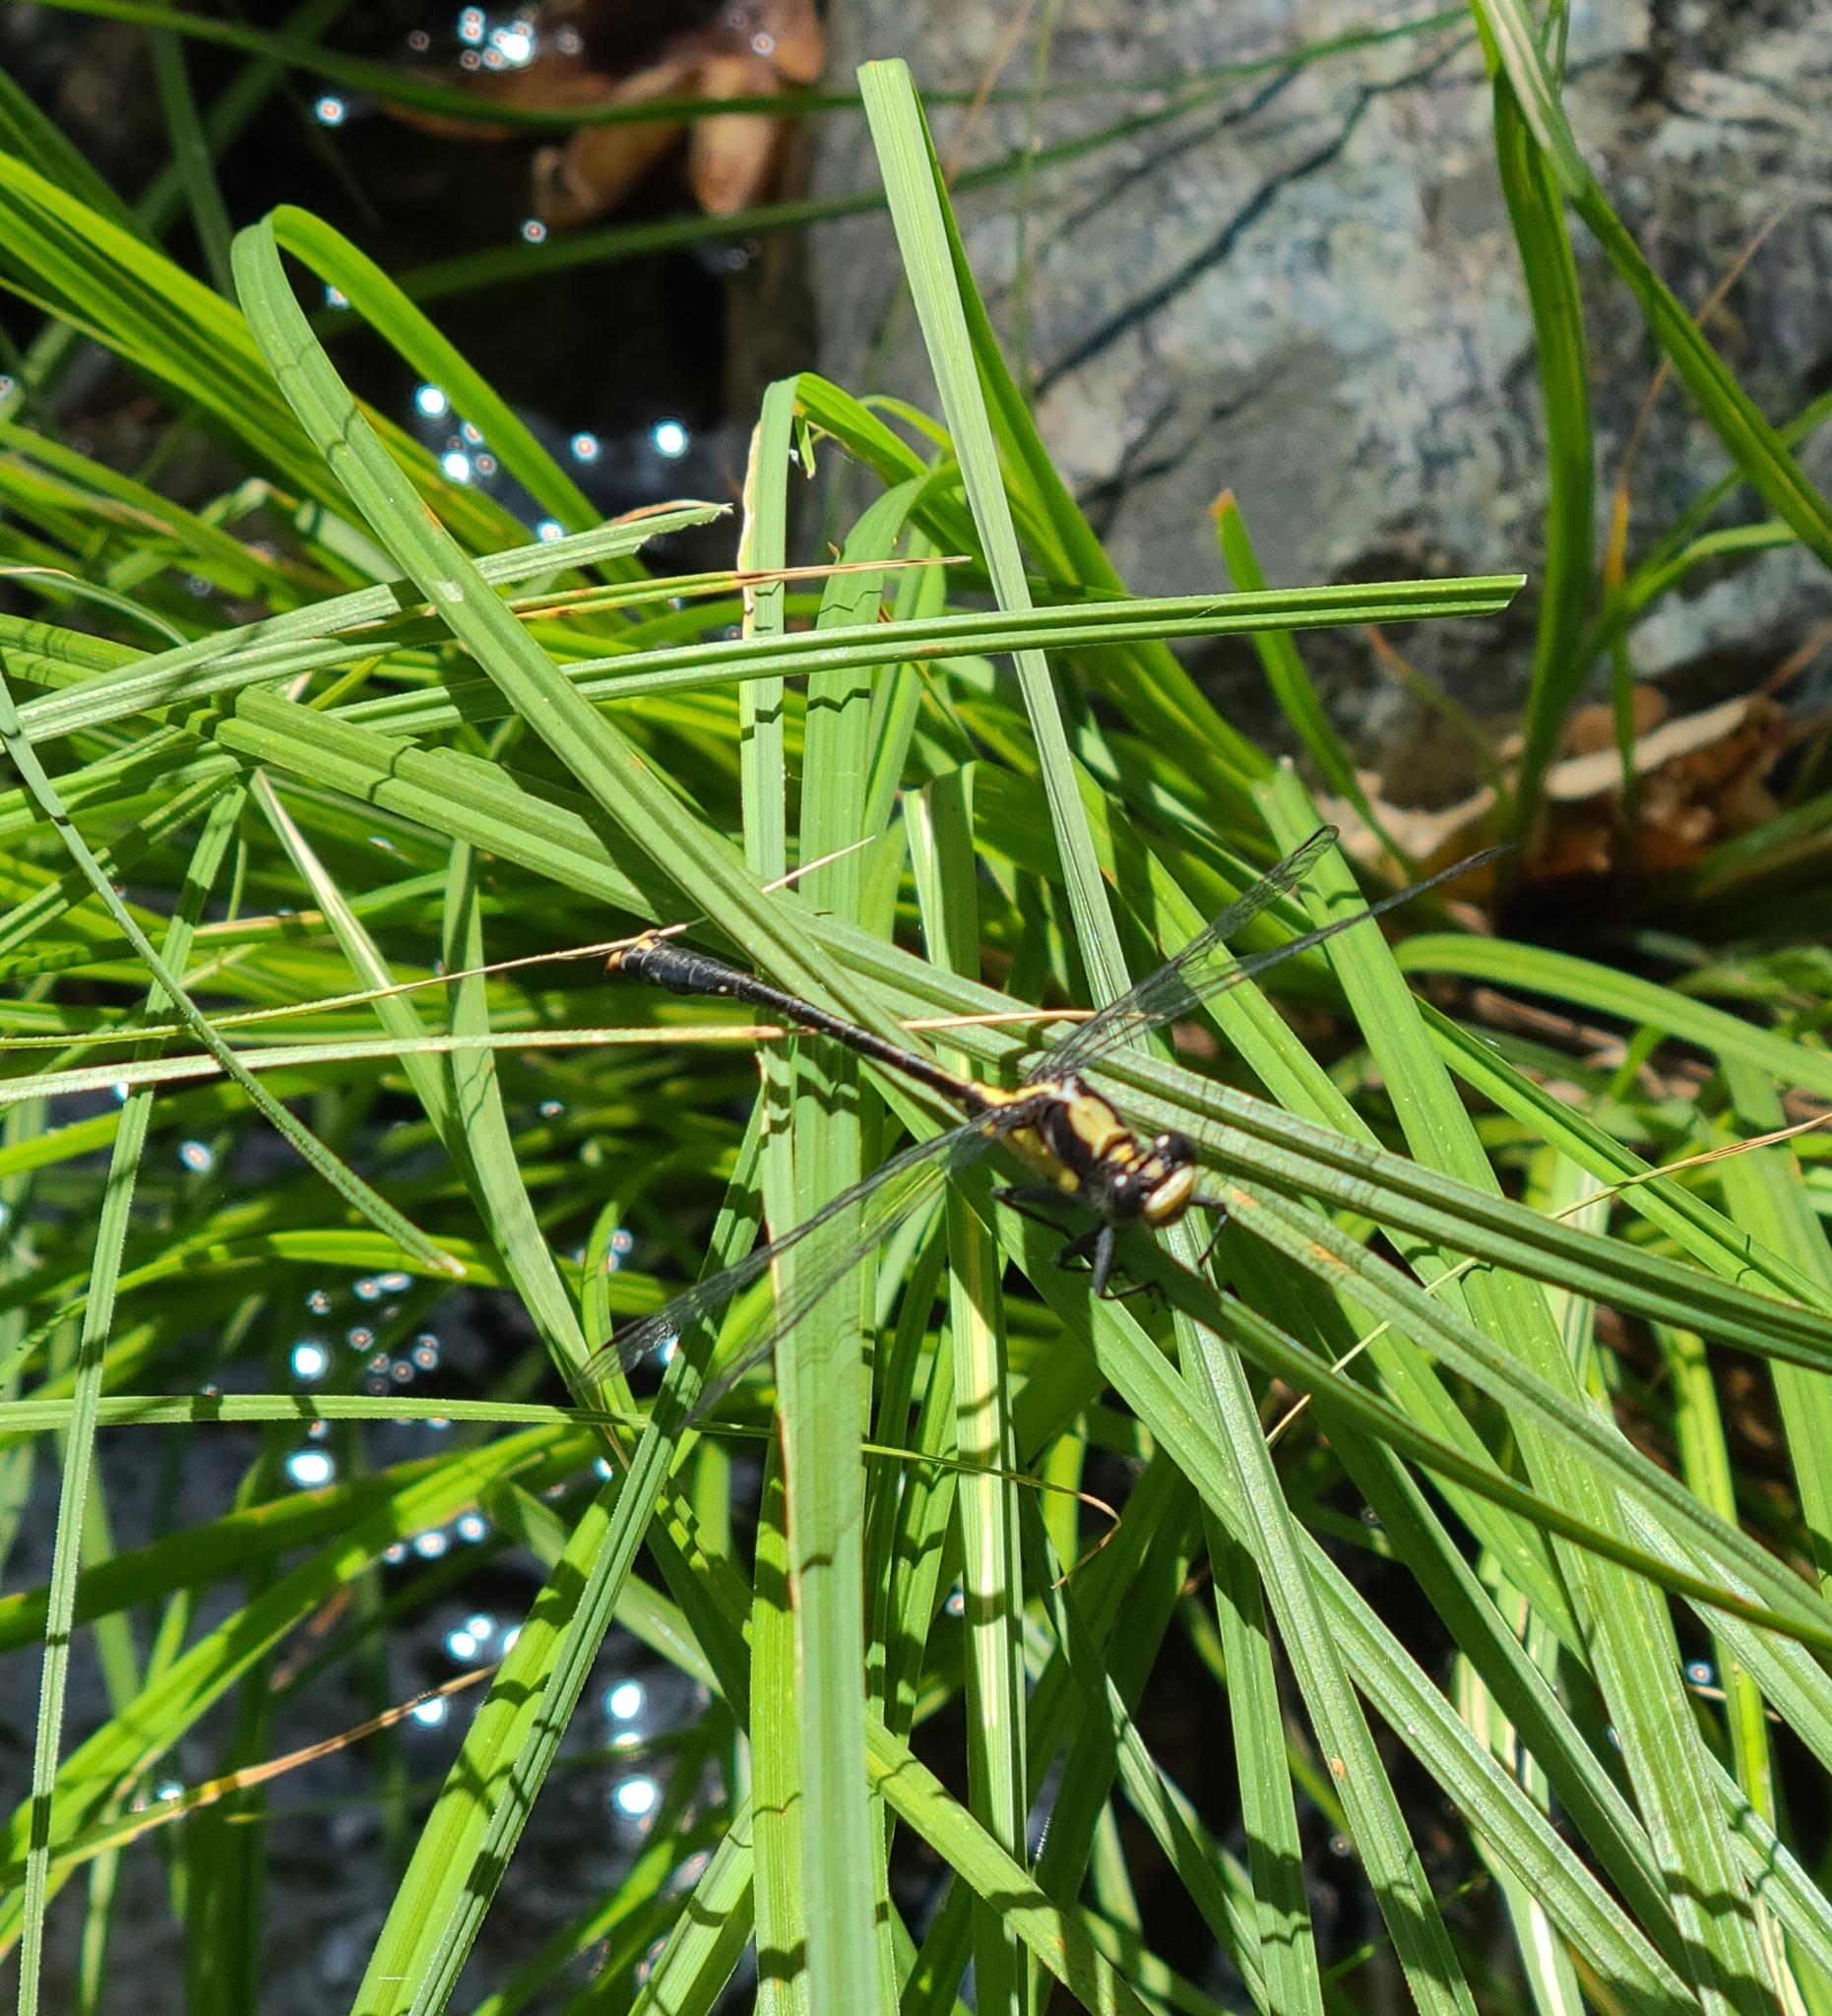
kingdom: Animalia
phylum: Arthropoda
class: Insecta
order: Odonata
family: Gomphidae
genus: Octogomphus
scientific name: Octogomphus specularis
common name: Grappletail
